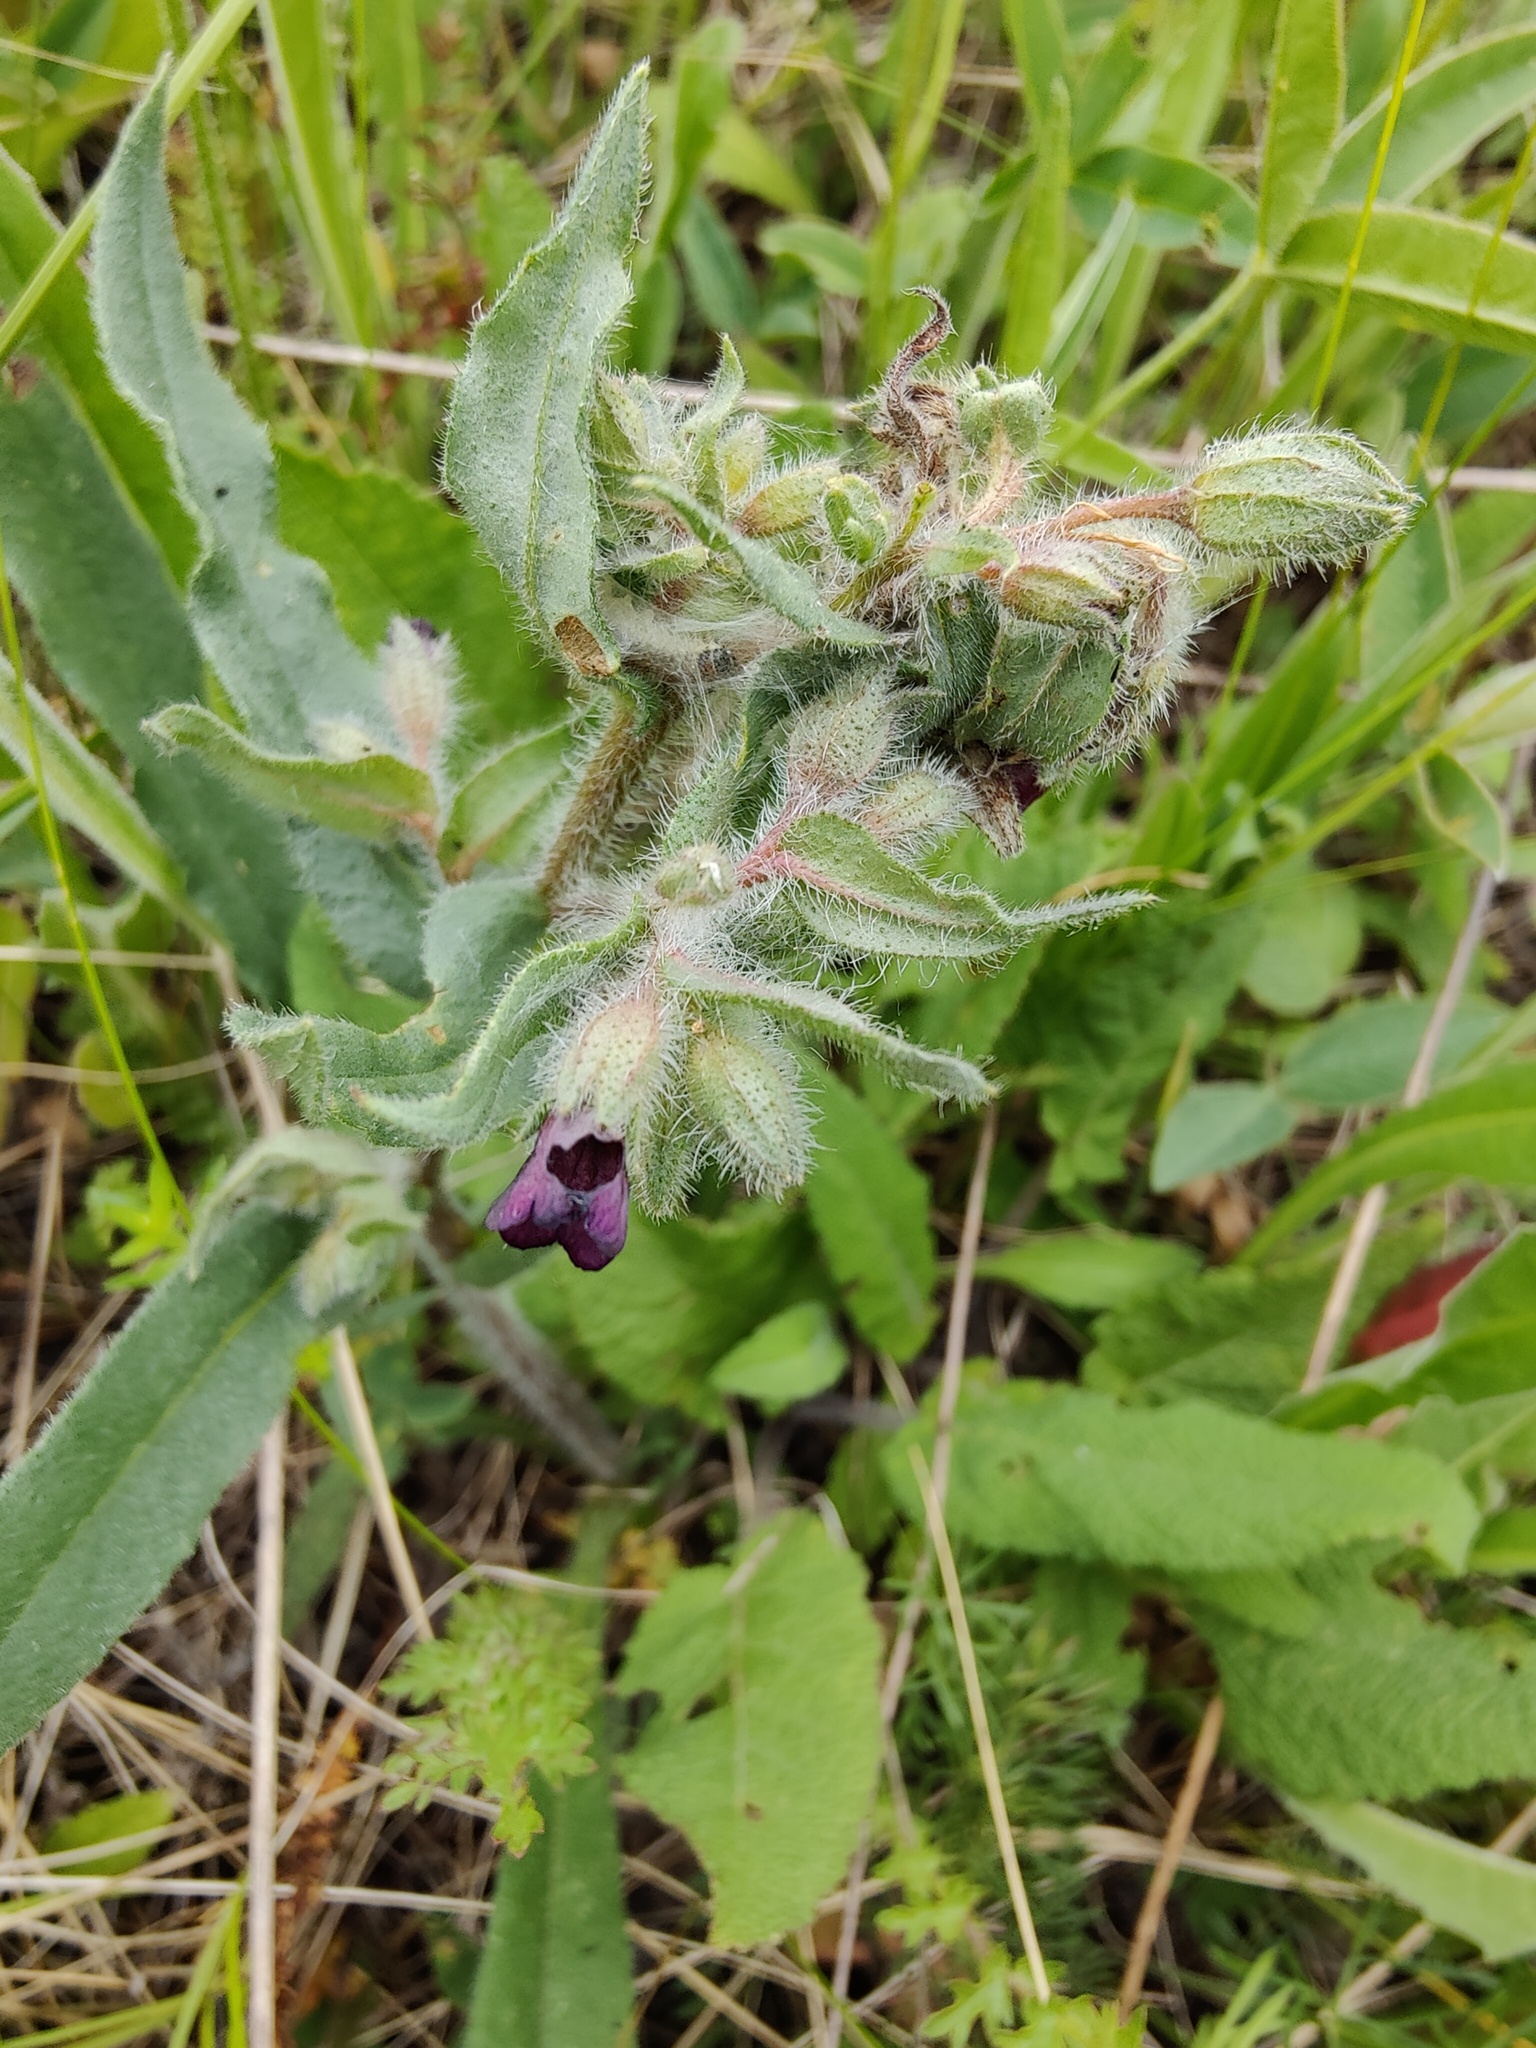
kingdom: Plantae
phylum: Tracheophyta
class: Magnoliopsida
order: Boraginales
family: Boraginaceae
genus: Nonea
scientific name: Nonea pulla
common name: Brown nonea
